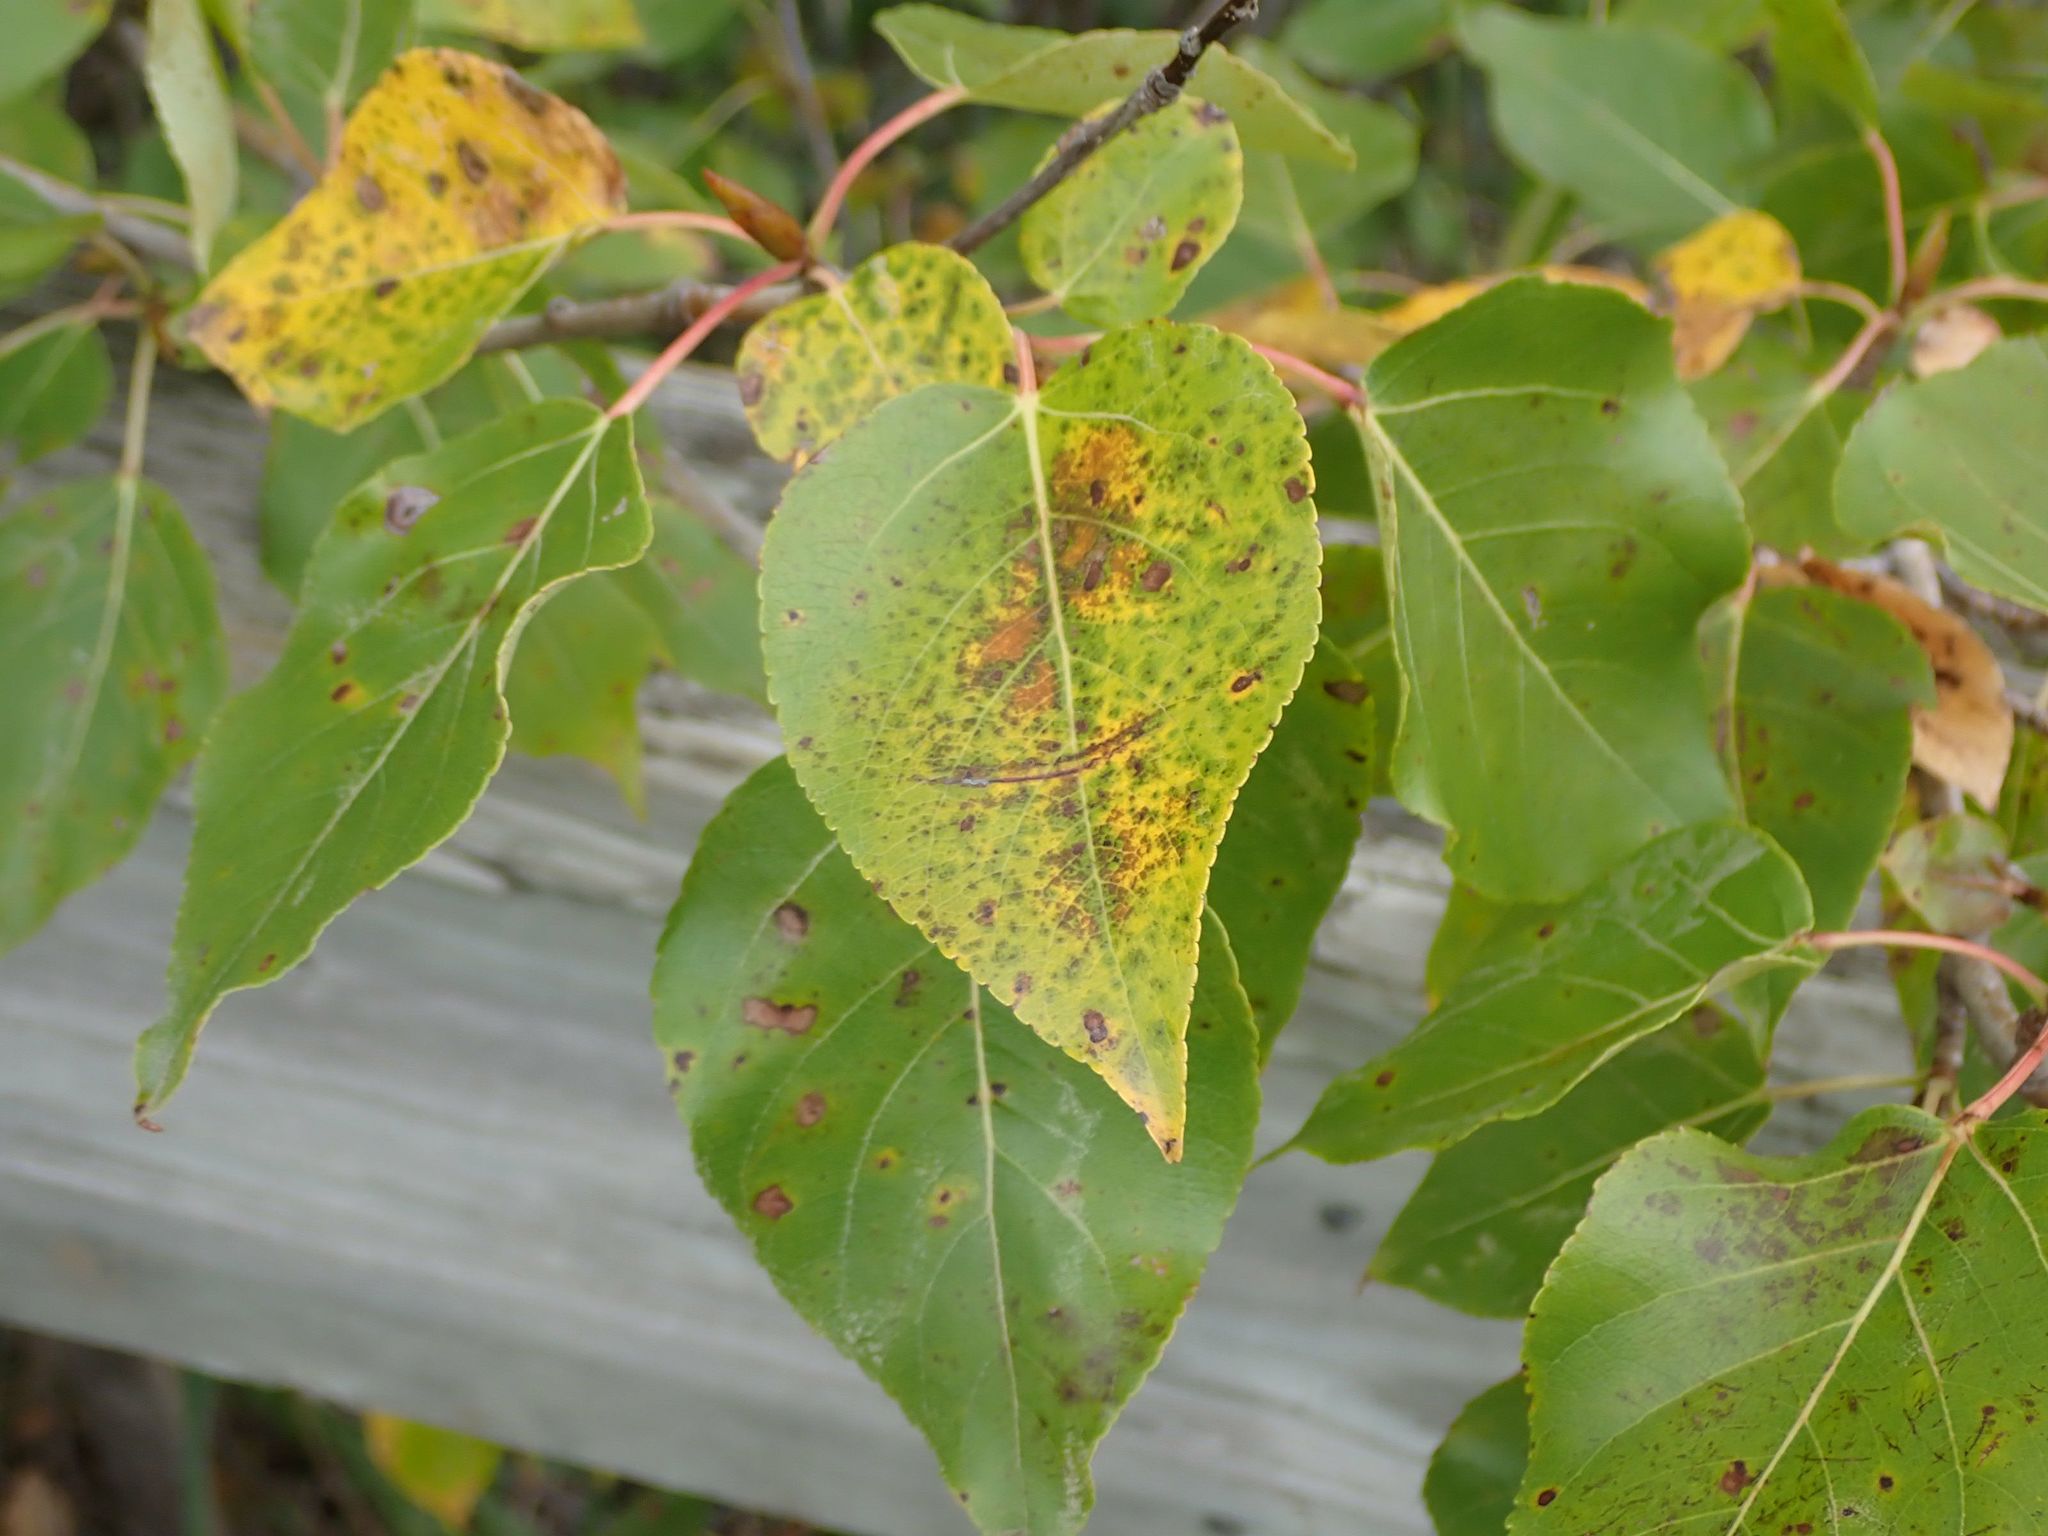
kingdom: Plantae
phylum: Tracheophyta
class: Magnoliopsida
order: Malpighiales
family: Salicaceae
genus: Populus
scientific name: Populus balsamifera
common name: Balsam poplar
